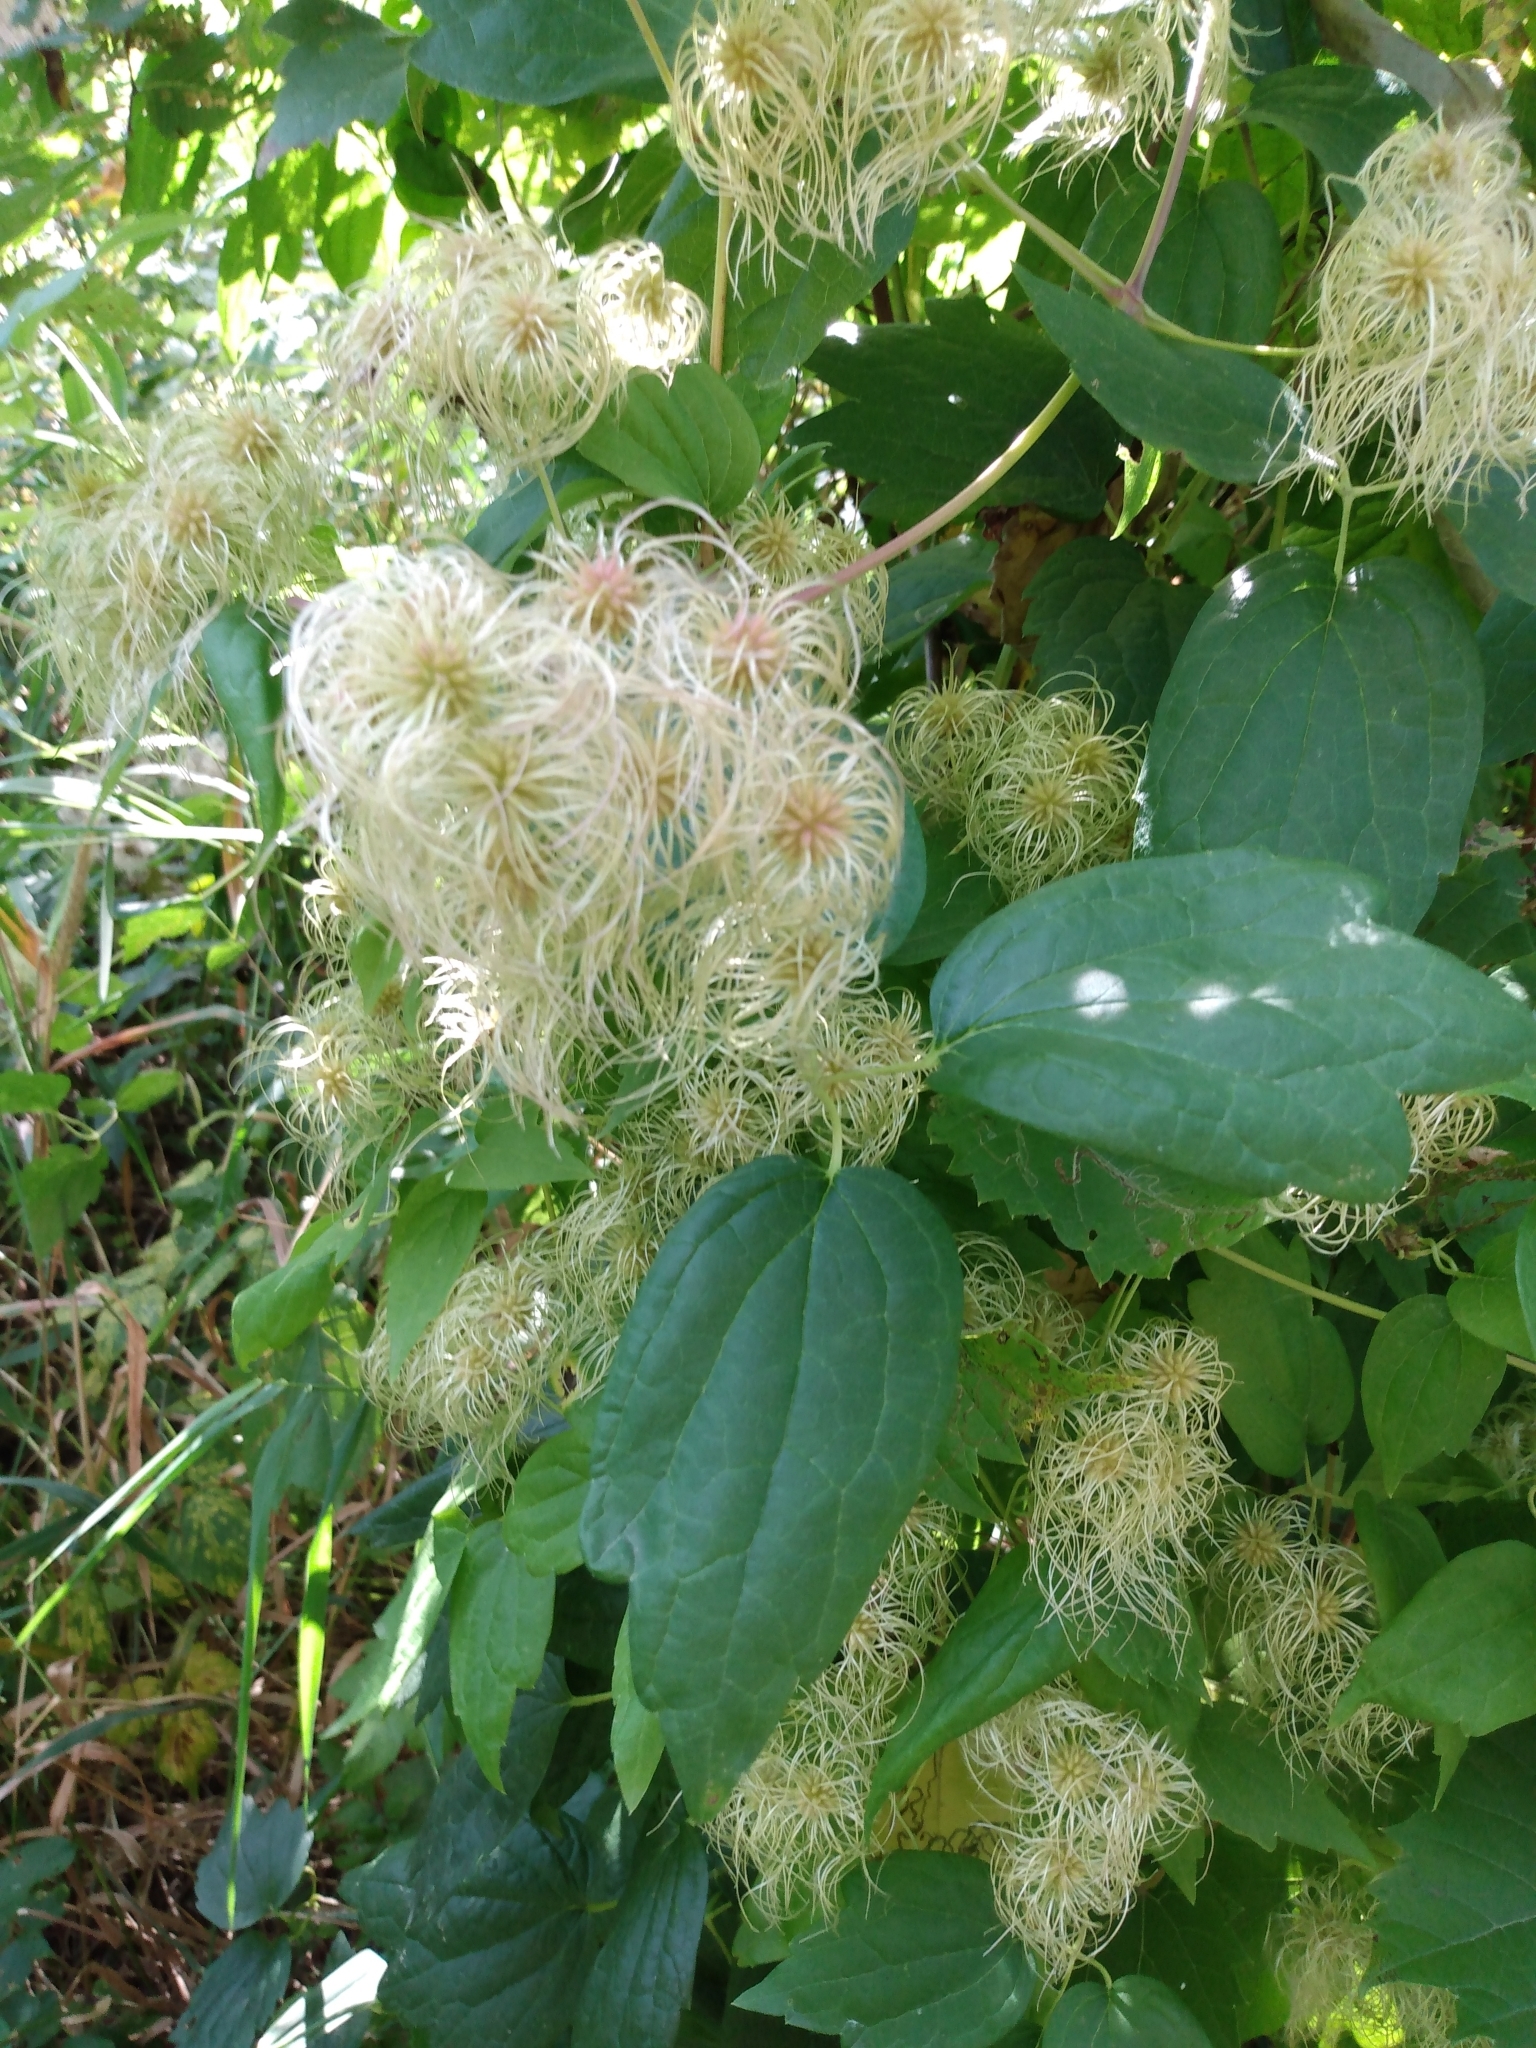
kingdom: Plantae
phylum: Tracheophyta
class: Magnoliopsida
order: Ranunculales
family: Ranunculaceae
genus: Clematis
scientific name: Clematis virginiana
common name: Virgin's-bower
